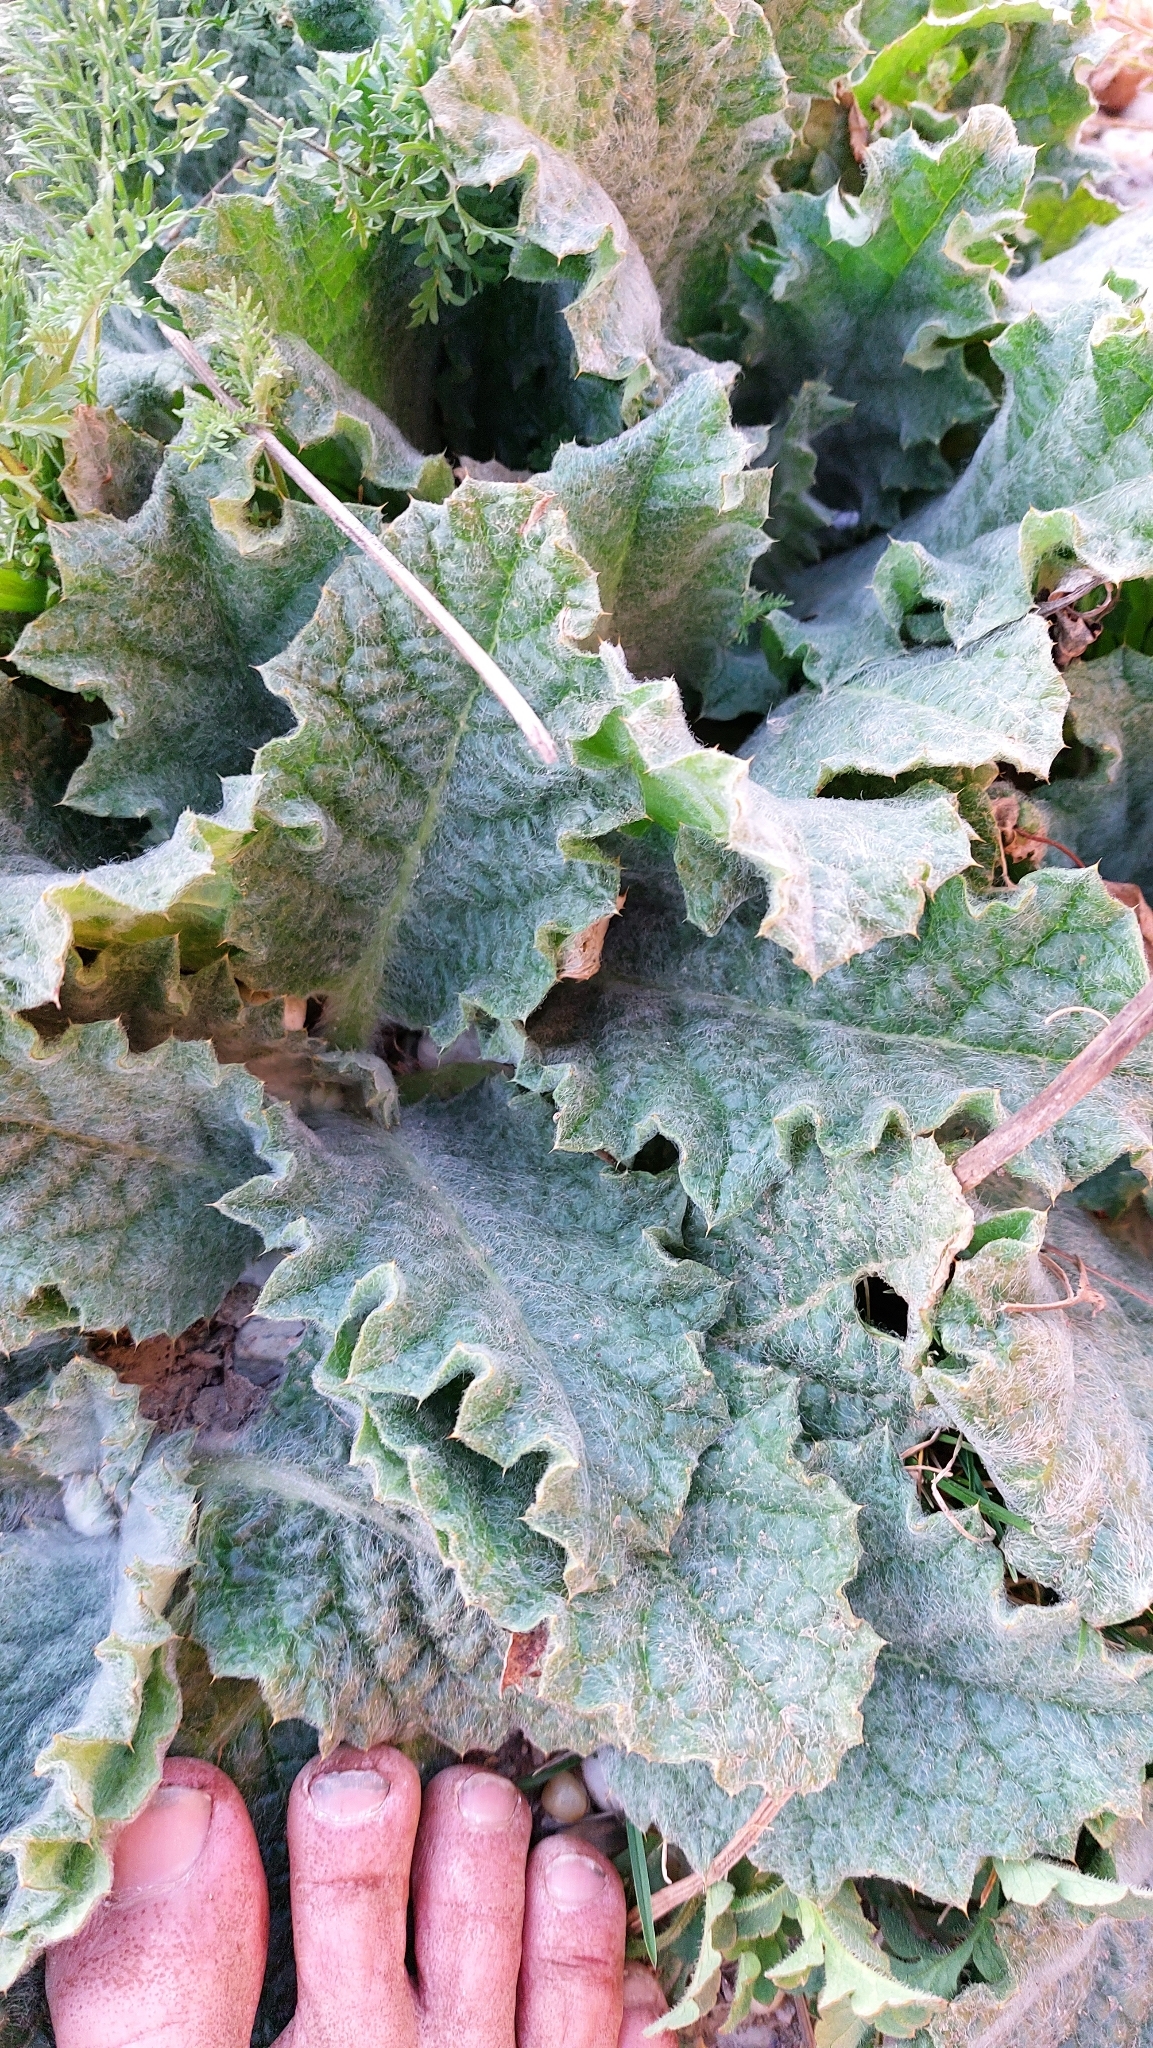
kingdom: Plantae
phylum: Tracheophyta
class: Magnoliopsida
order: Asterales
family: Asteraceae
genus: Onopordum
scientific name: Onopordum acanthium
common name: Scotch thistle
